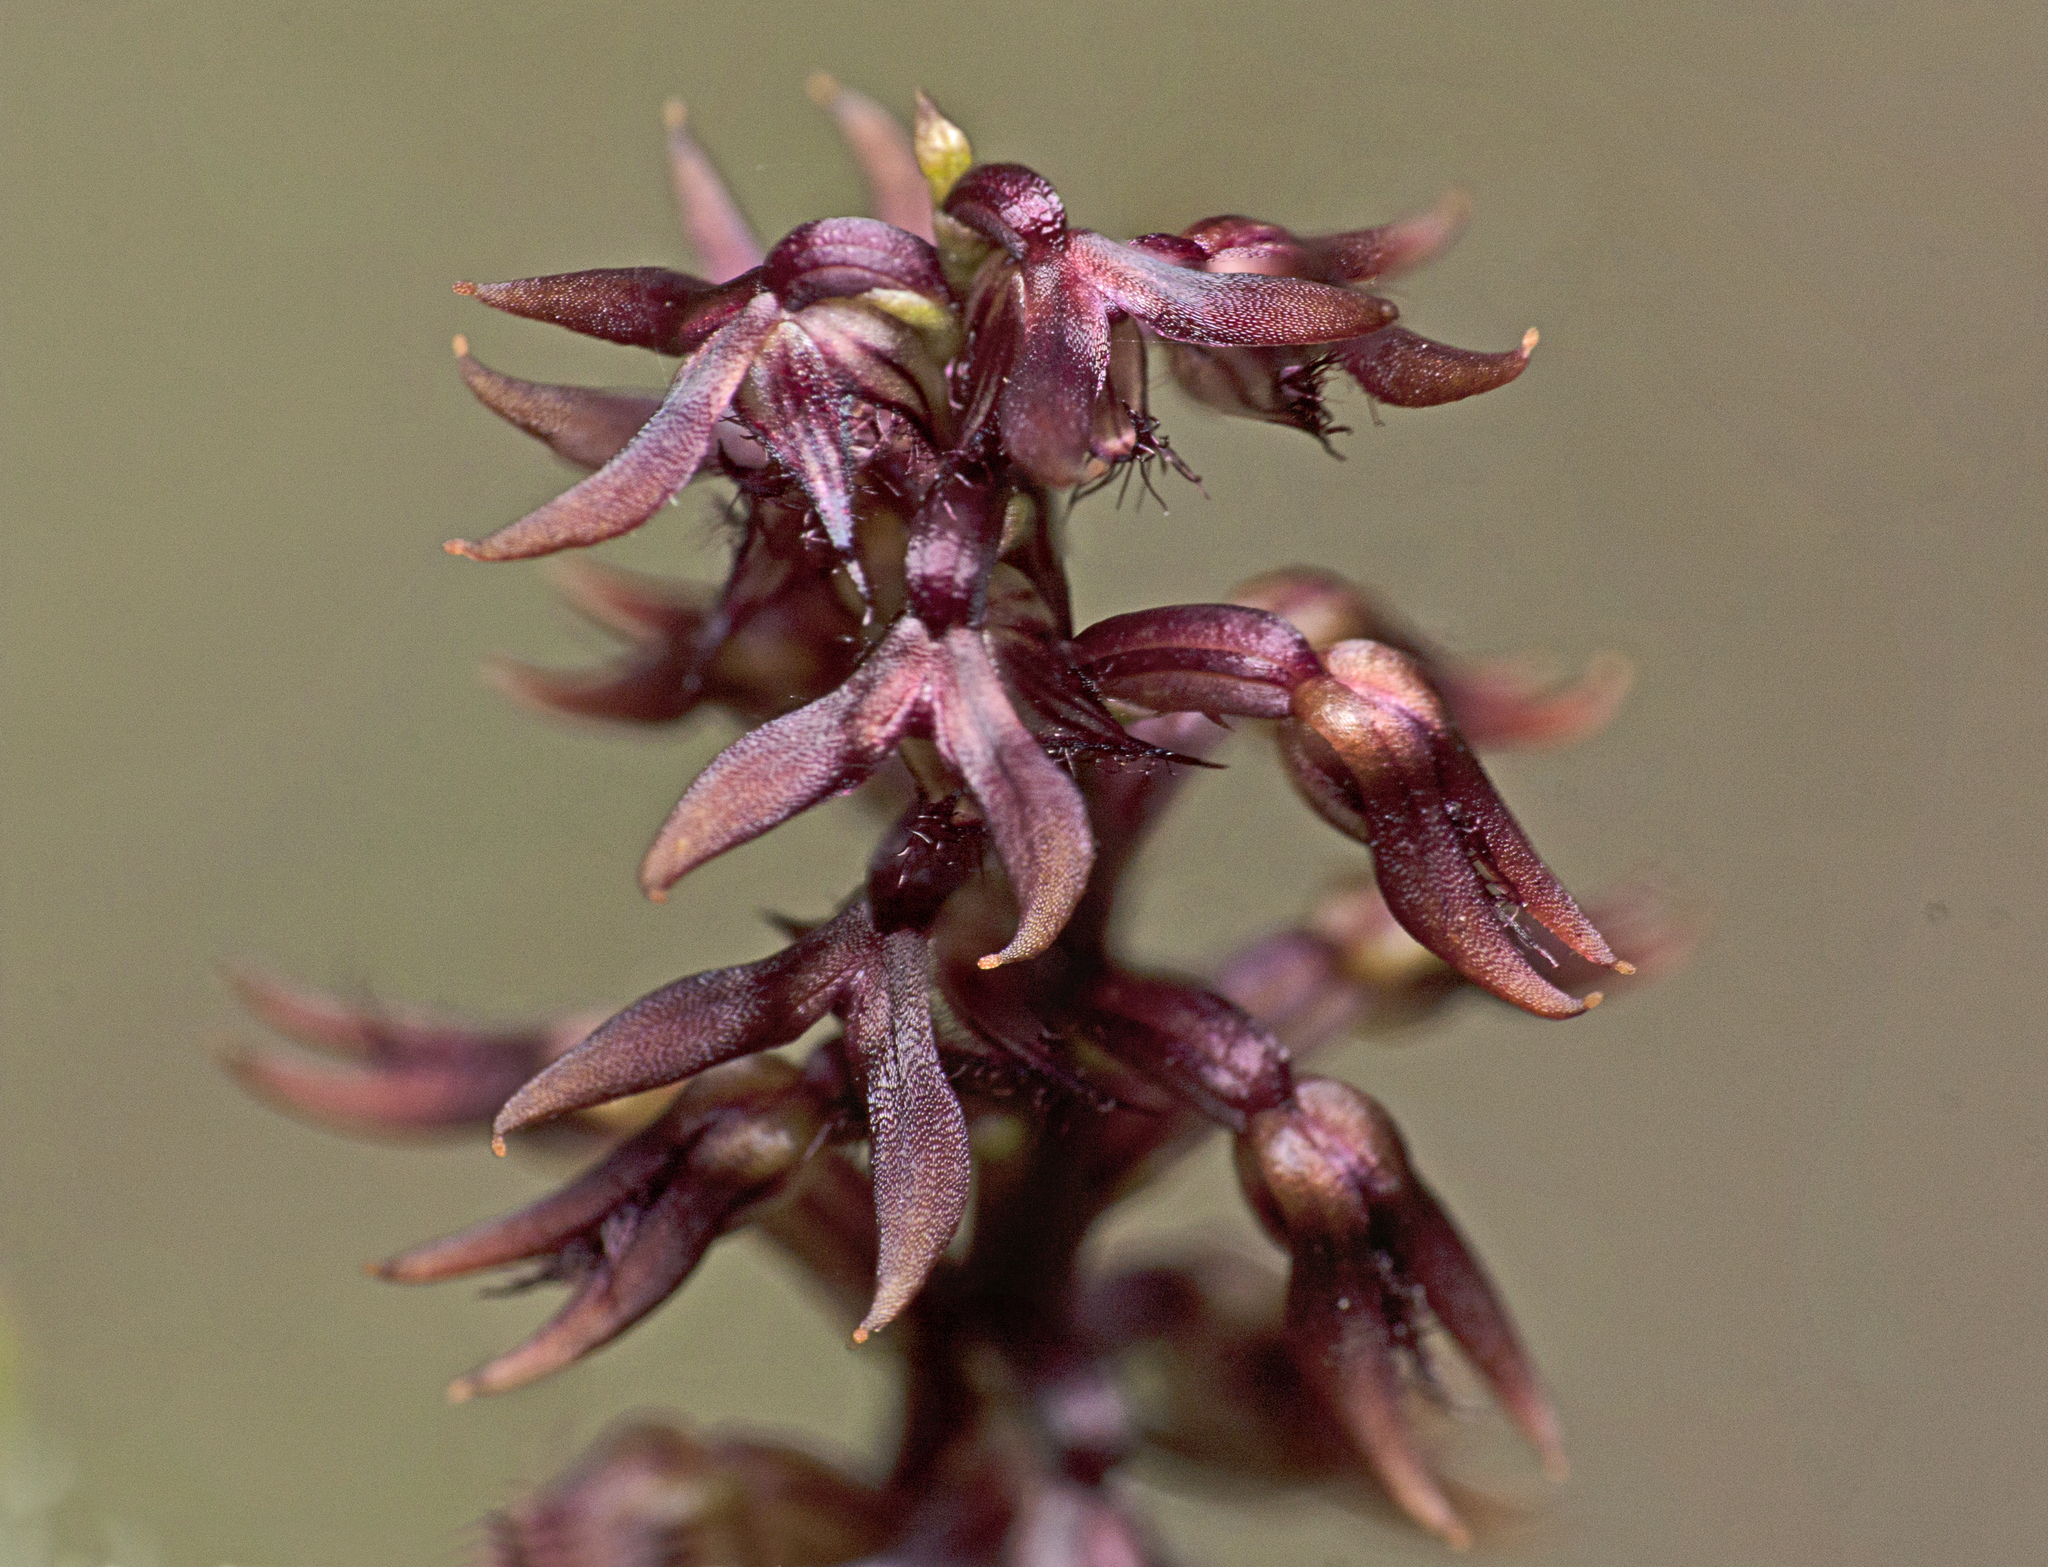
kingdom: Plantae
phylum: Tracheophyta
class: Liliopsida
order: Asparagales
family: Orchidaceae
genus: Genoplesium
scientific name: Genoplesium acuminatum
